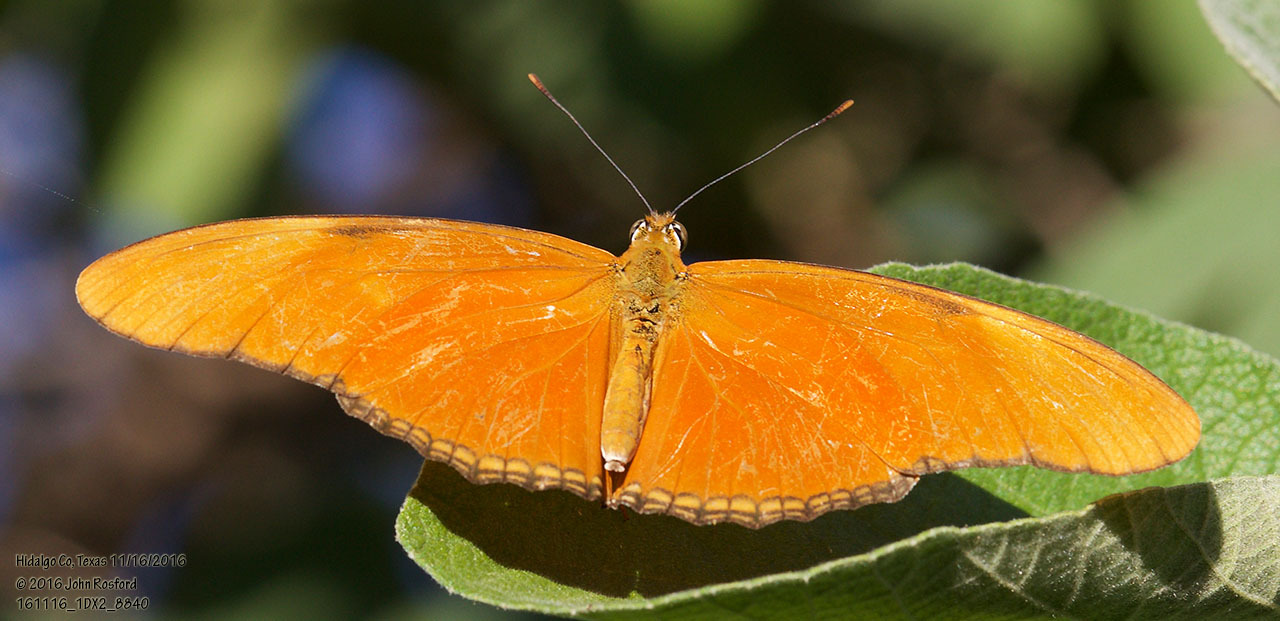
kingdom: Animalia
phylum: Arthropoda
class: Insecta
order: Lepidoptera
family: Nymphalidae
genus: Dryas
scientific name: Dryas iulia
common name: Flambeau
